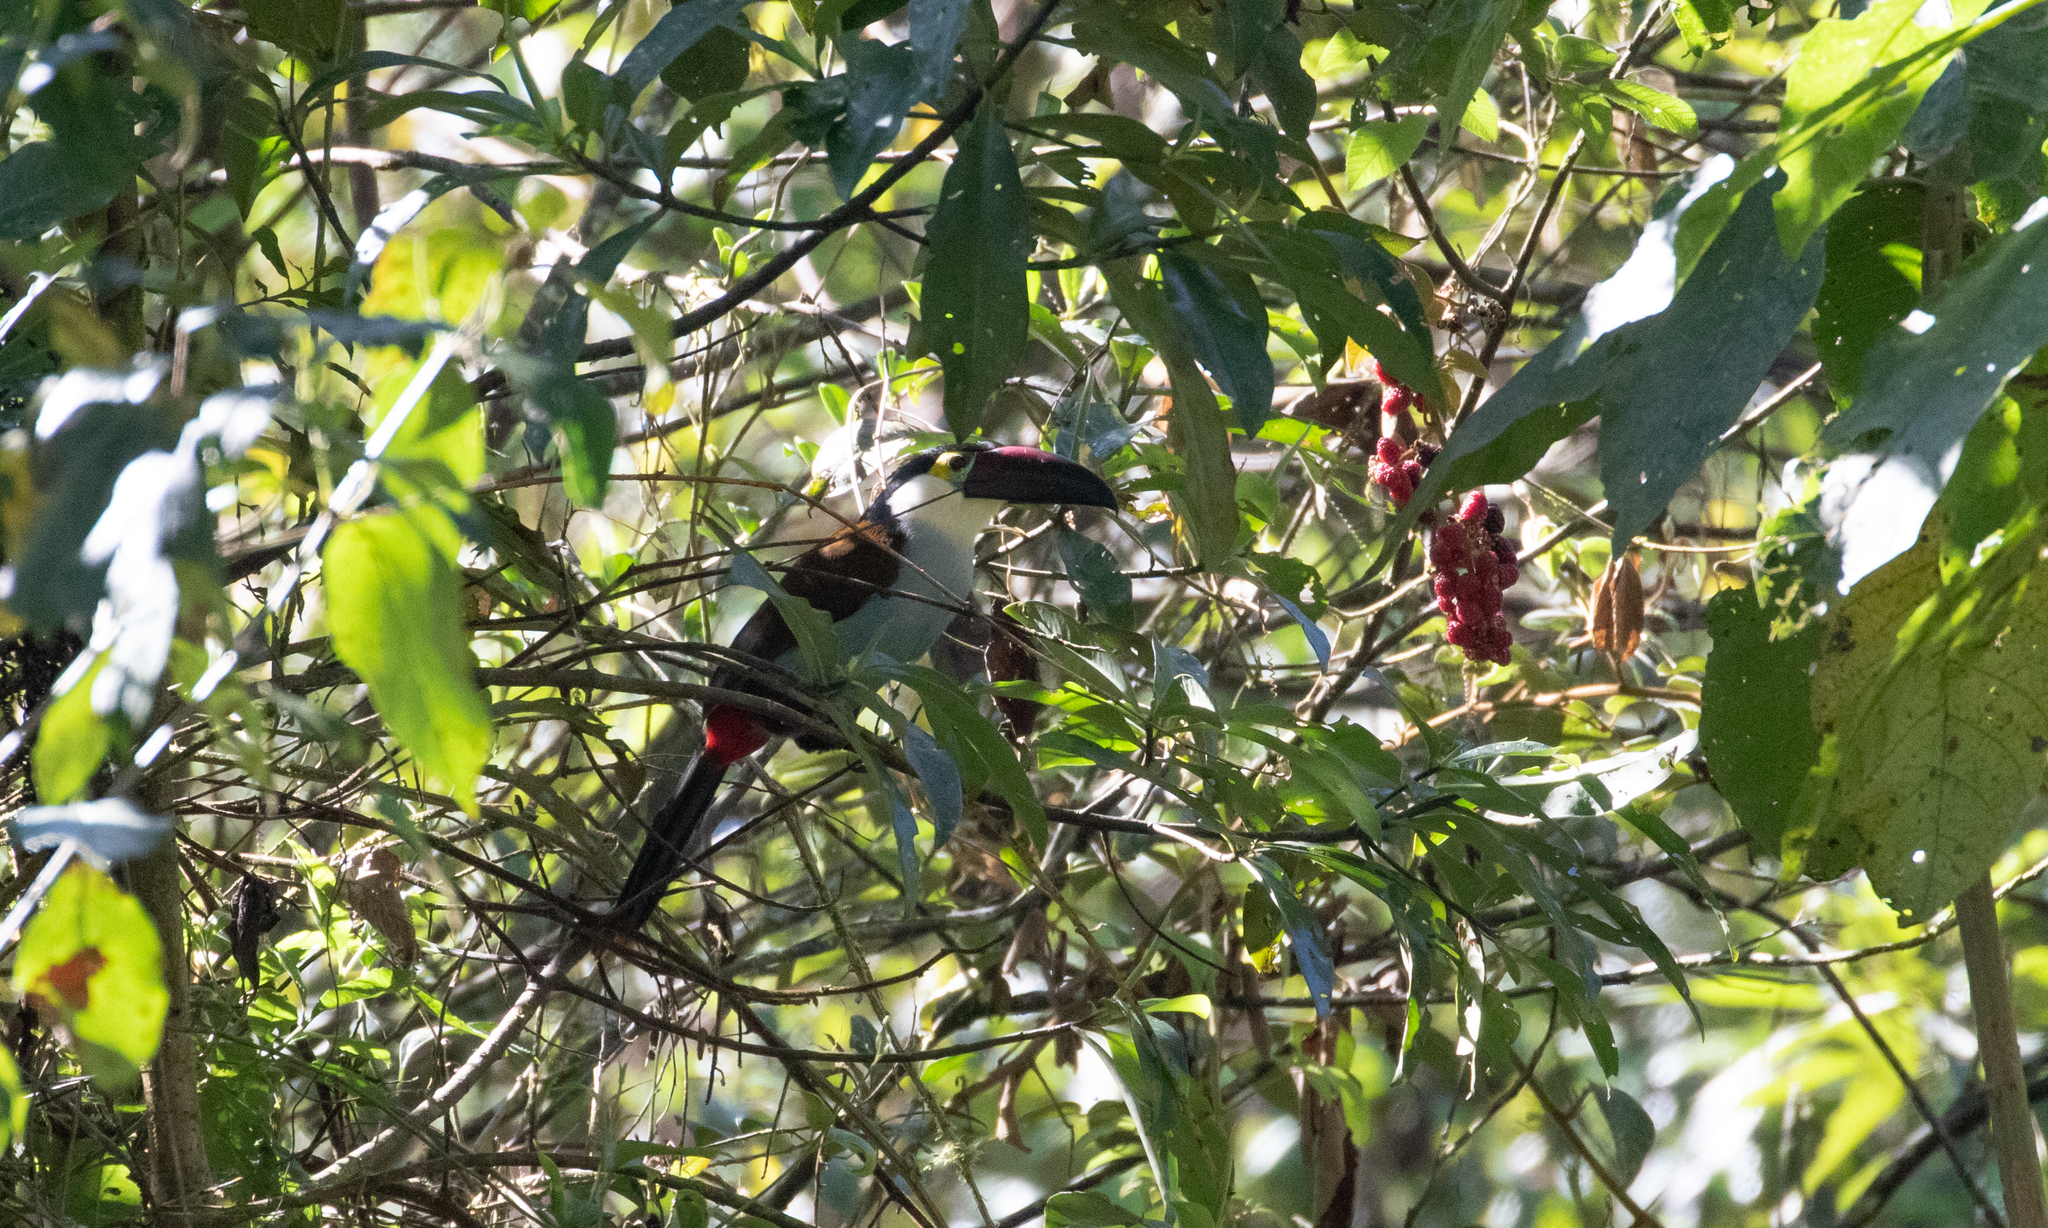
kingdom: Animalia
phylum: Chordata
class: Aves
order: Piciformes
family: Ramphastidae
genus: Andigena
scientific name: Andigena nigrirostris
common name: Black-billed mountain toucan
